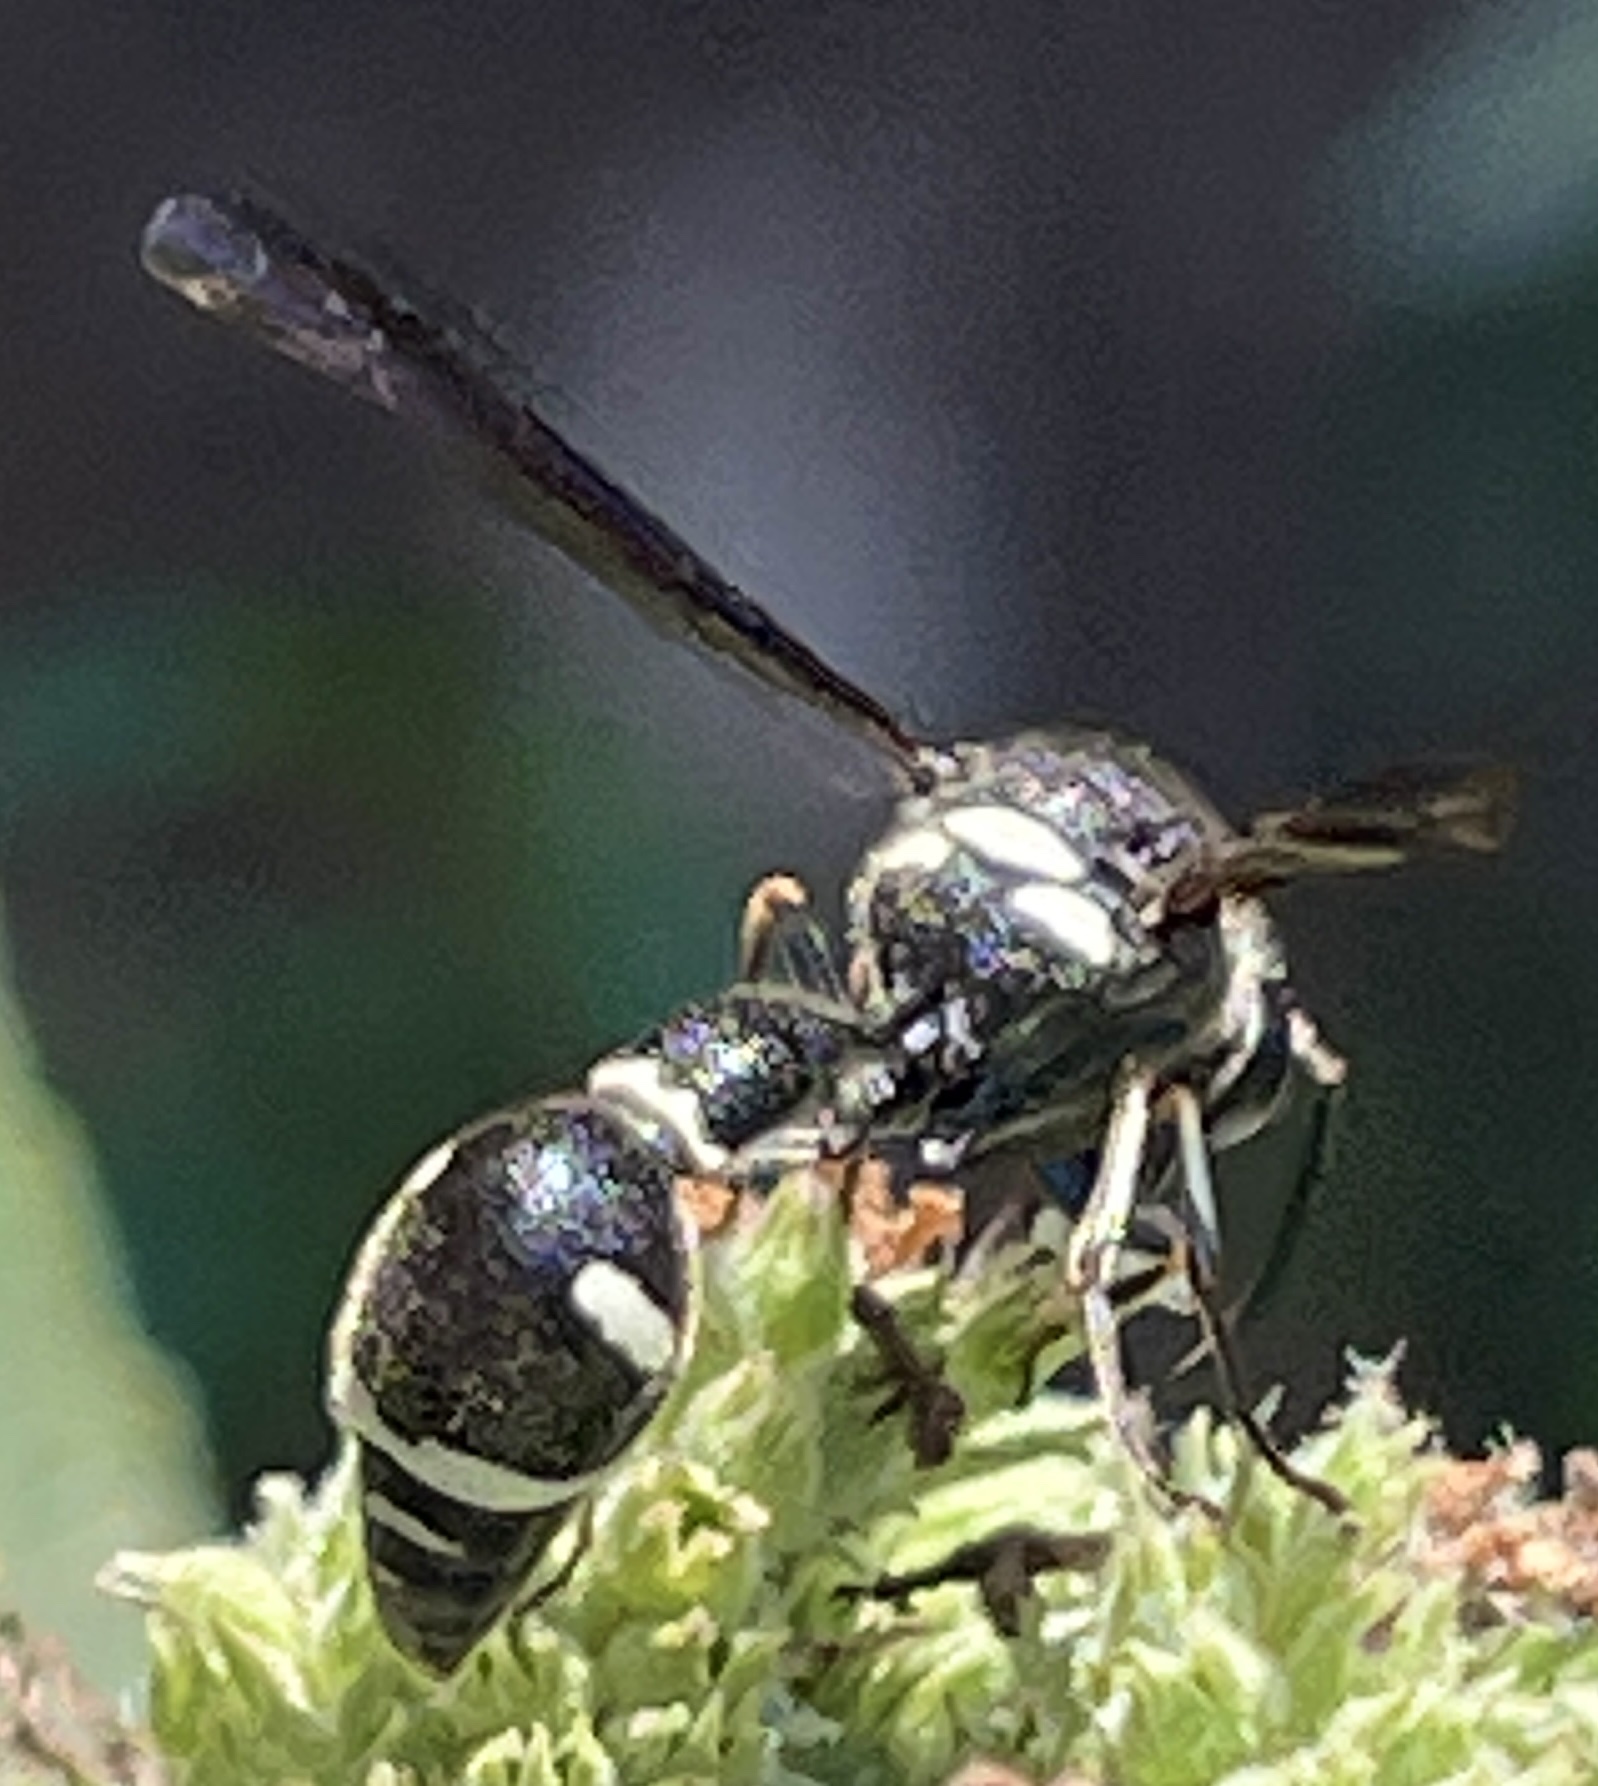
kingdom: Animalia
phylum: Arthropoda
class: Insecta
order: Hymenoptera
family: Vespidae
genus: Eumenes
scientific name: Eumenes fraternus
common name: Fraternal potter wasp
